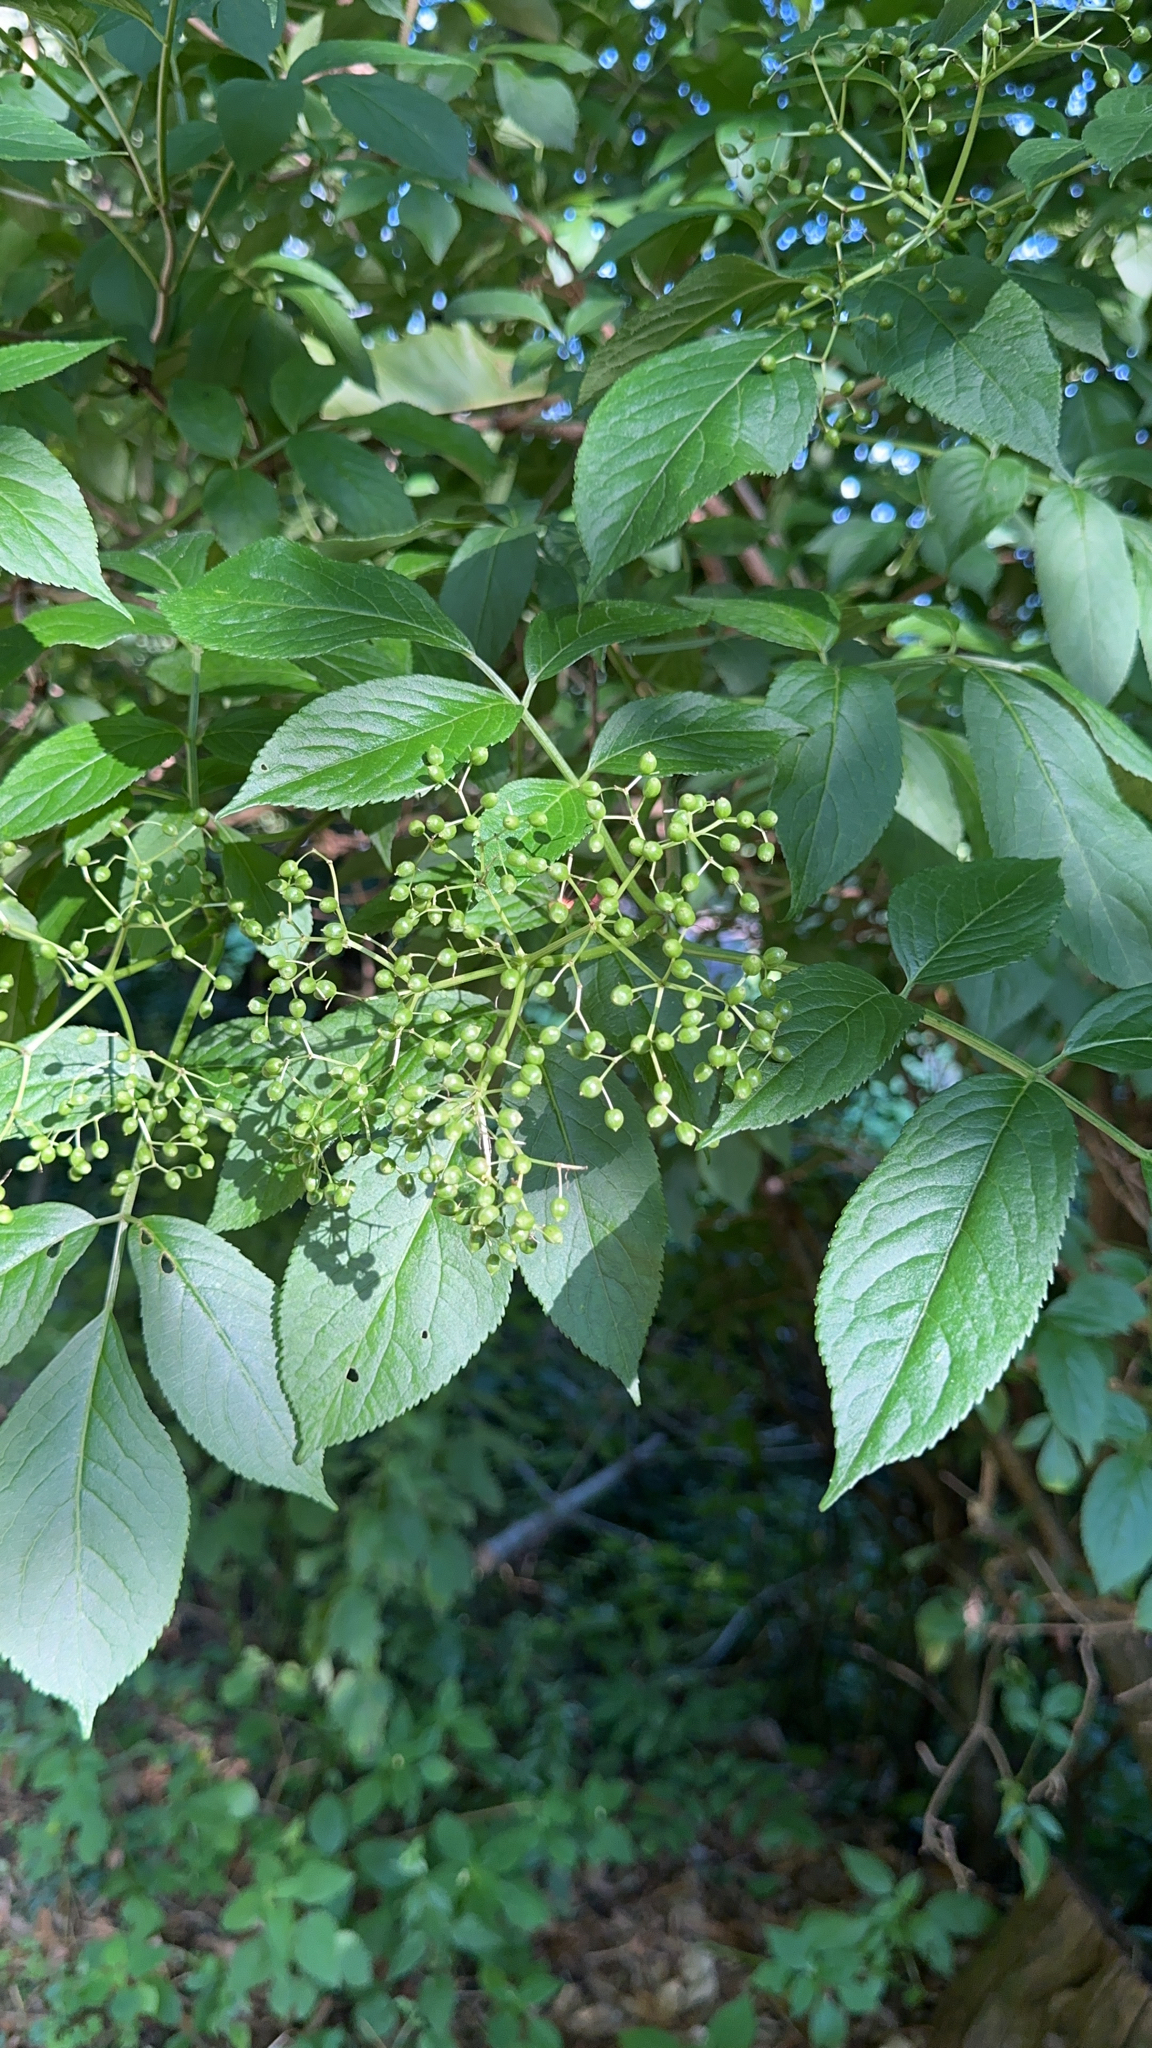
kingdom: Plantae
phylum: Tracheophyta
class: Magnoliopsida
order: Dipsacales
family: Viburnaceae
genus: Sambucus
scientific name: Sambucus nigra
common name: Elder
